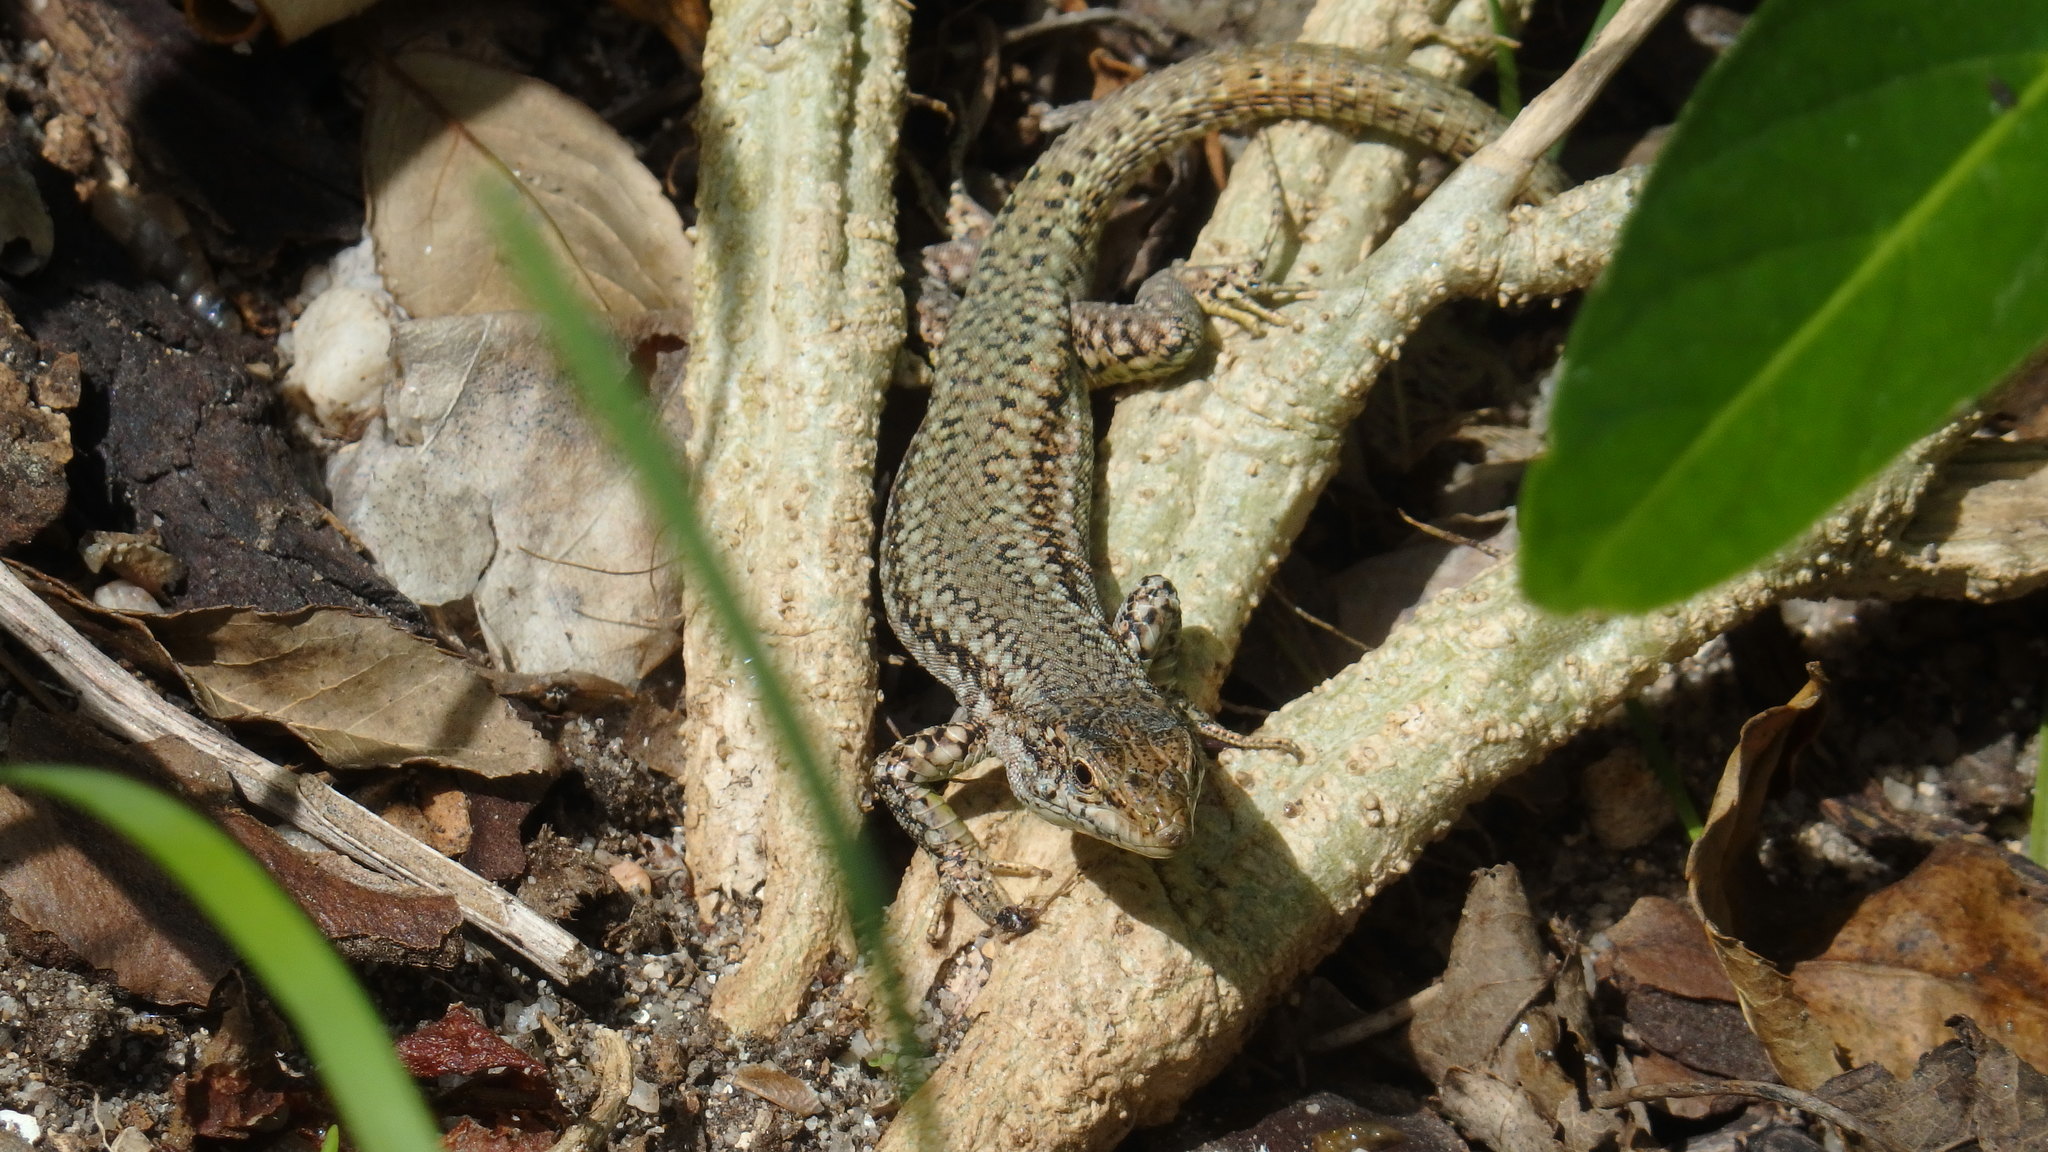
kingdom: Animalia
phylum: Chordata
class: Squamata
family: Lacertidae
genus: Podarcis
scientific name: Podarcis virescens
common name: Geniez’s wall lizard
